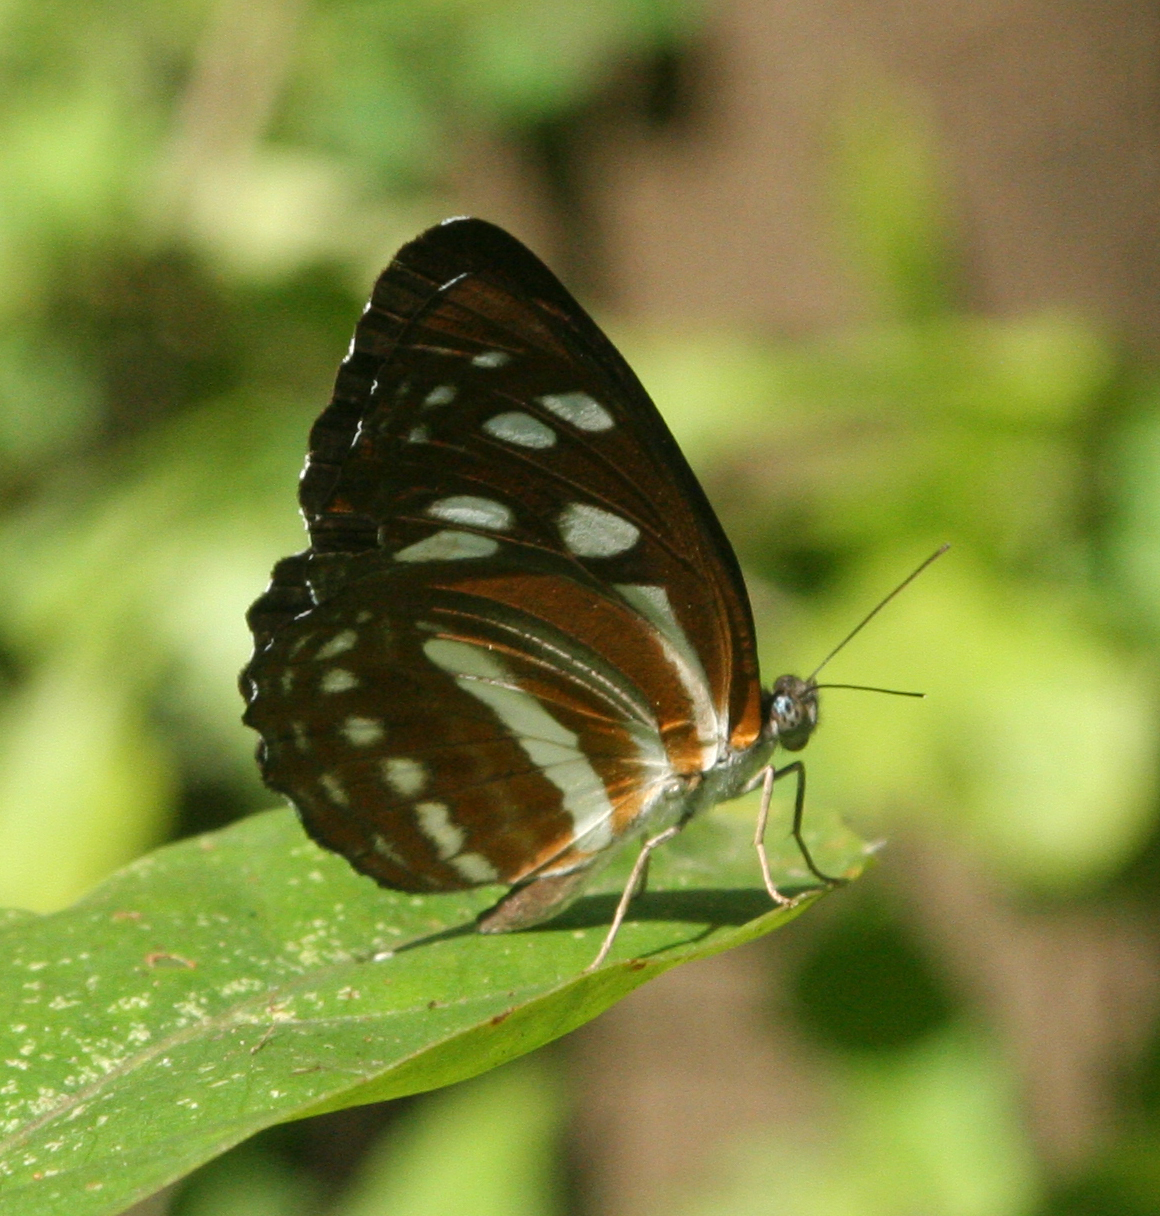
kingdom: Animalia
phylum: Arthropoda
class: Insecta
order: Lepidoptera
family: Nymphalidae
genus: Phaedyma
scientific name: Phaedyma columella
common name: Short banded sailer
